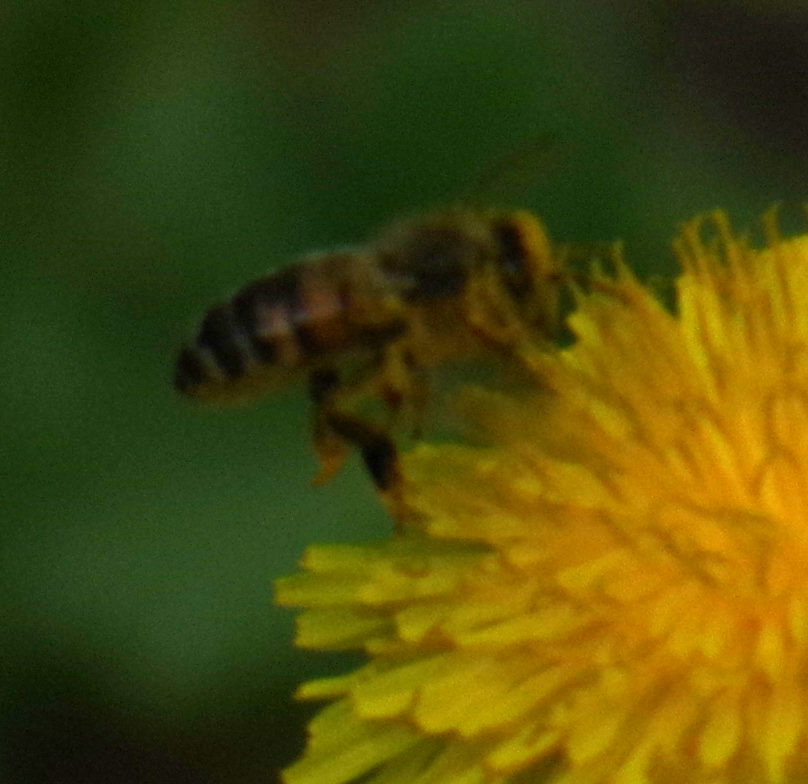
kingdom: Animalia
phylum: Arthropoda
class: Insecta
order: Hymenoptera
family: Apidae
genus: Apis
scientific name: Apis mellifera
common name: Honey bee
